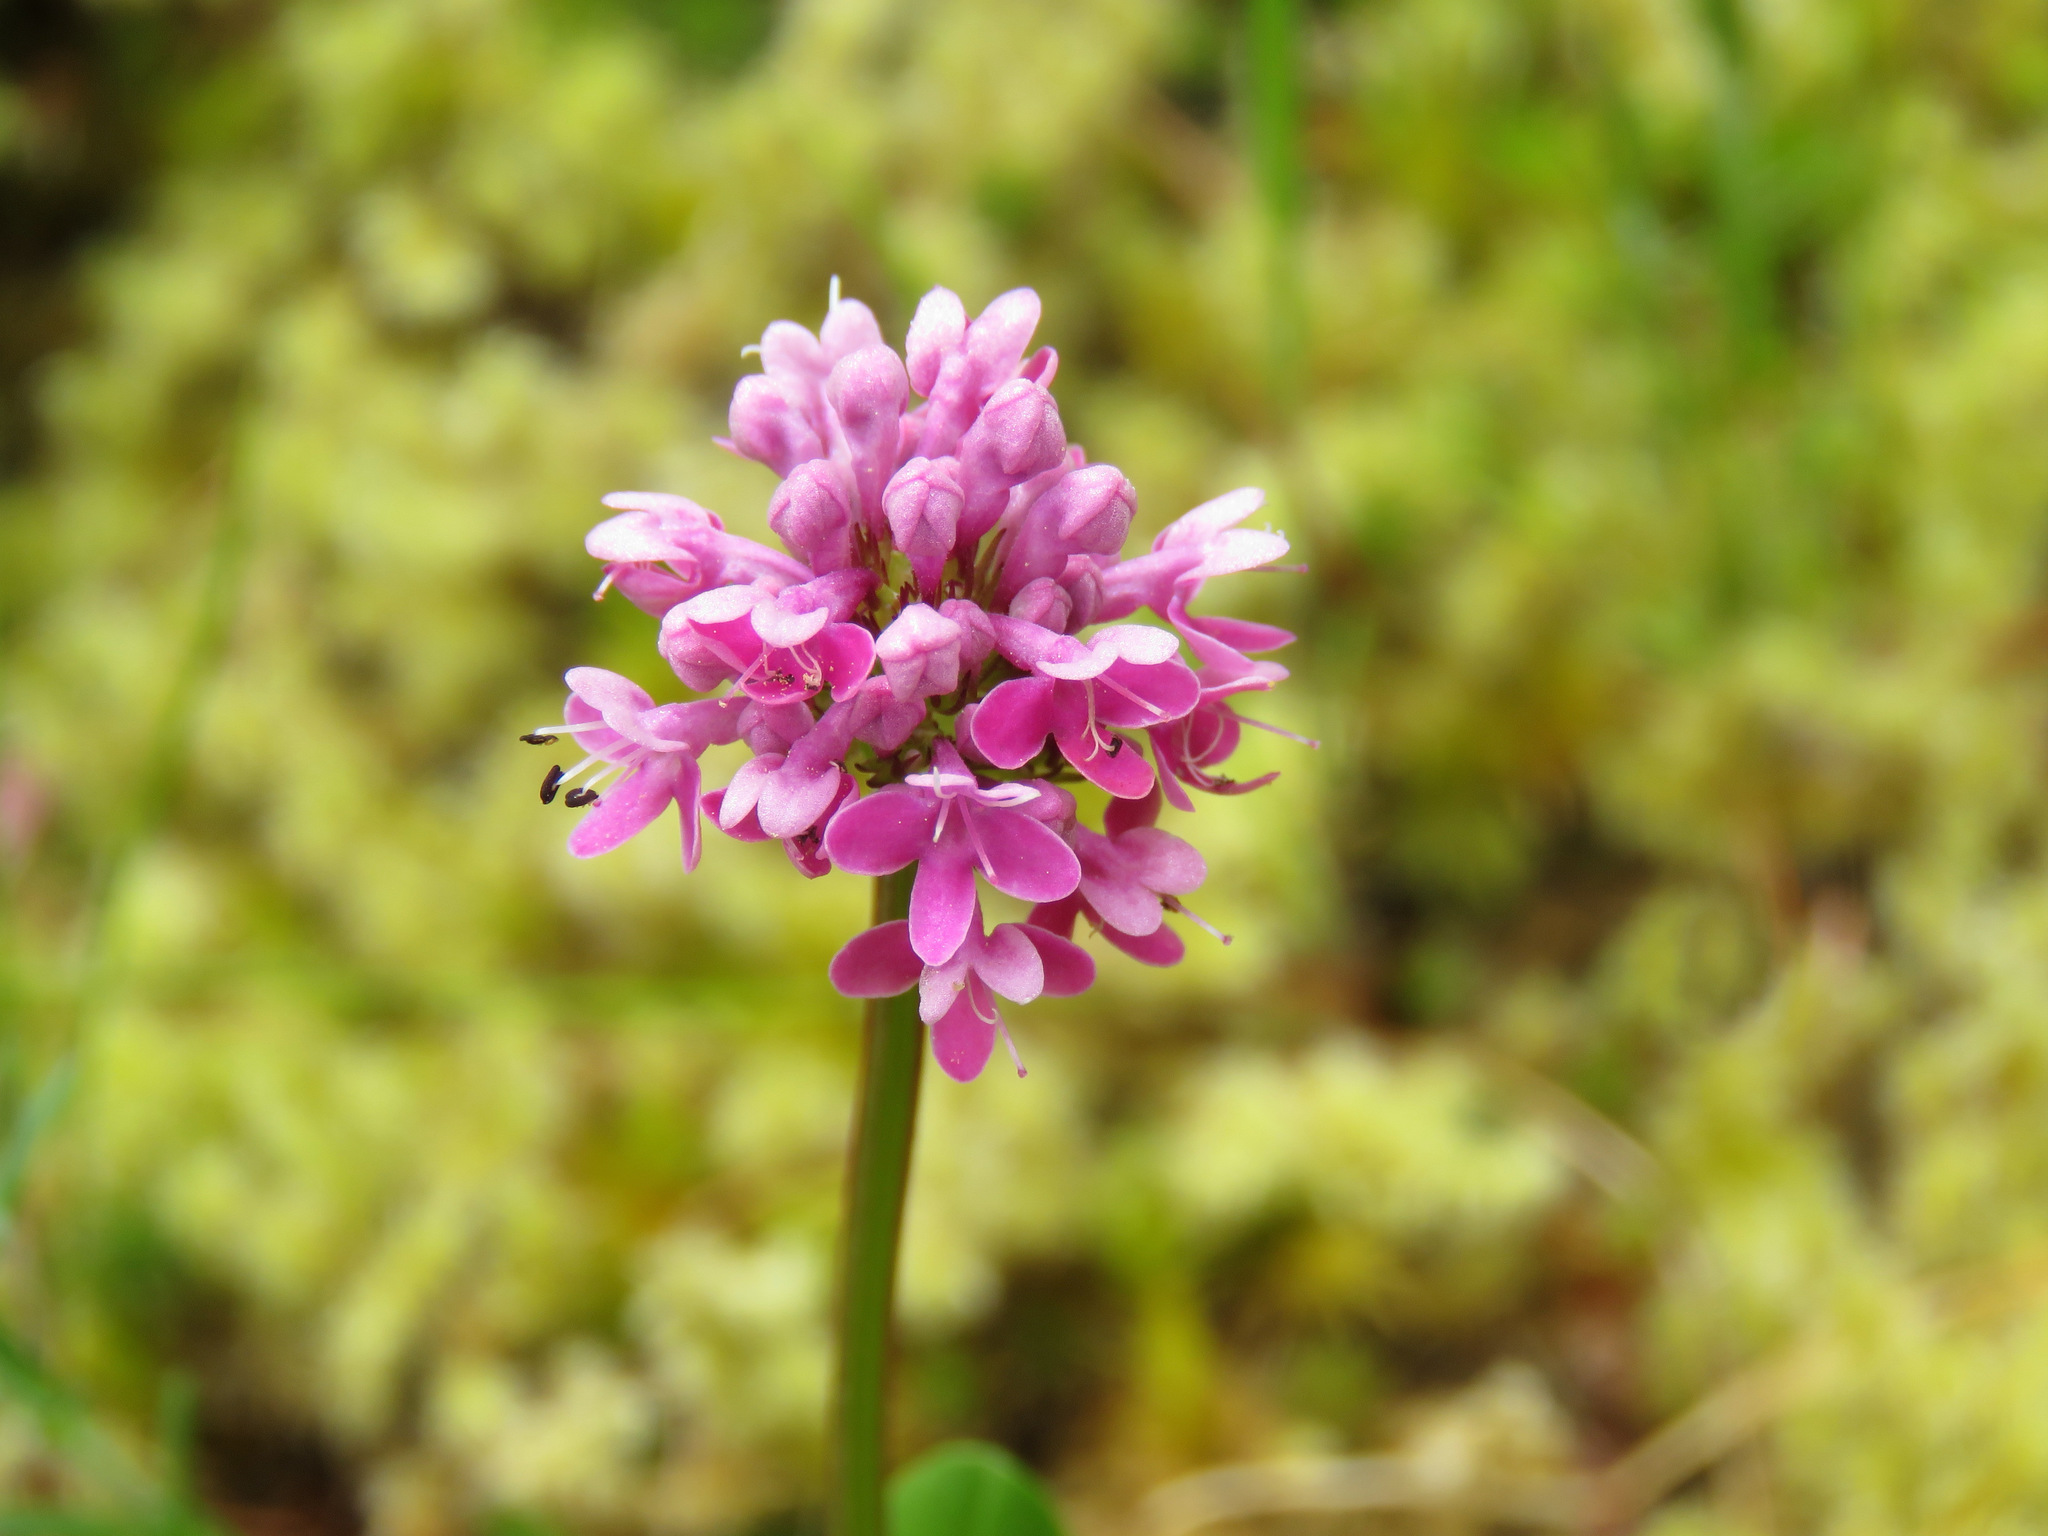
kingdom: Plantae
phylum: Tracheophyta
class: Magnoliopsida
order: Dipsacales
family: Caprifoliaceae
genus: Plectritis
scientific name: Plectritis congesta
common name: Pink plectritis
